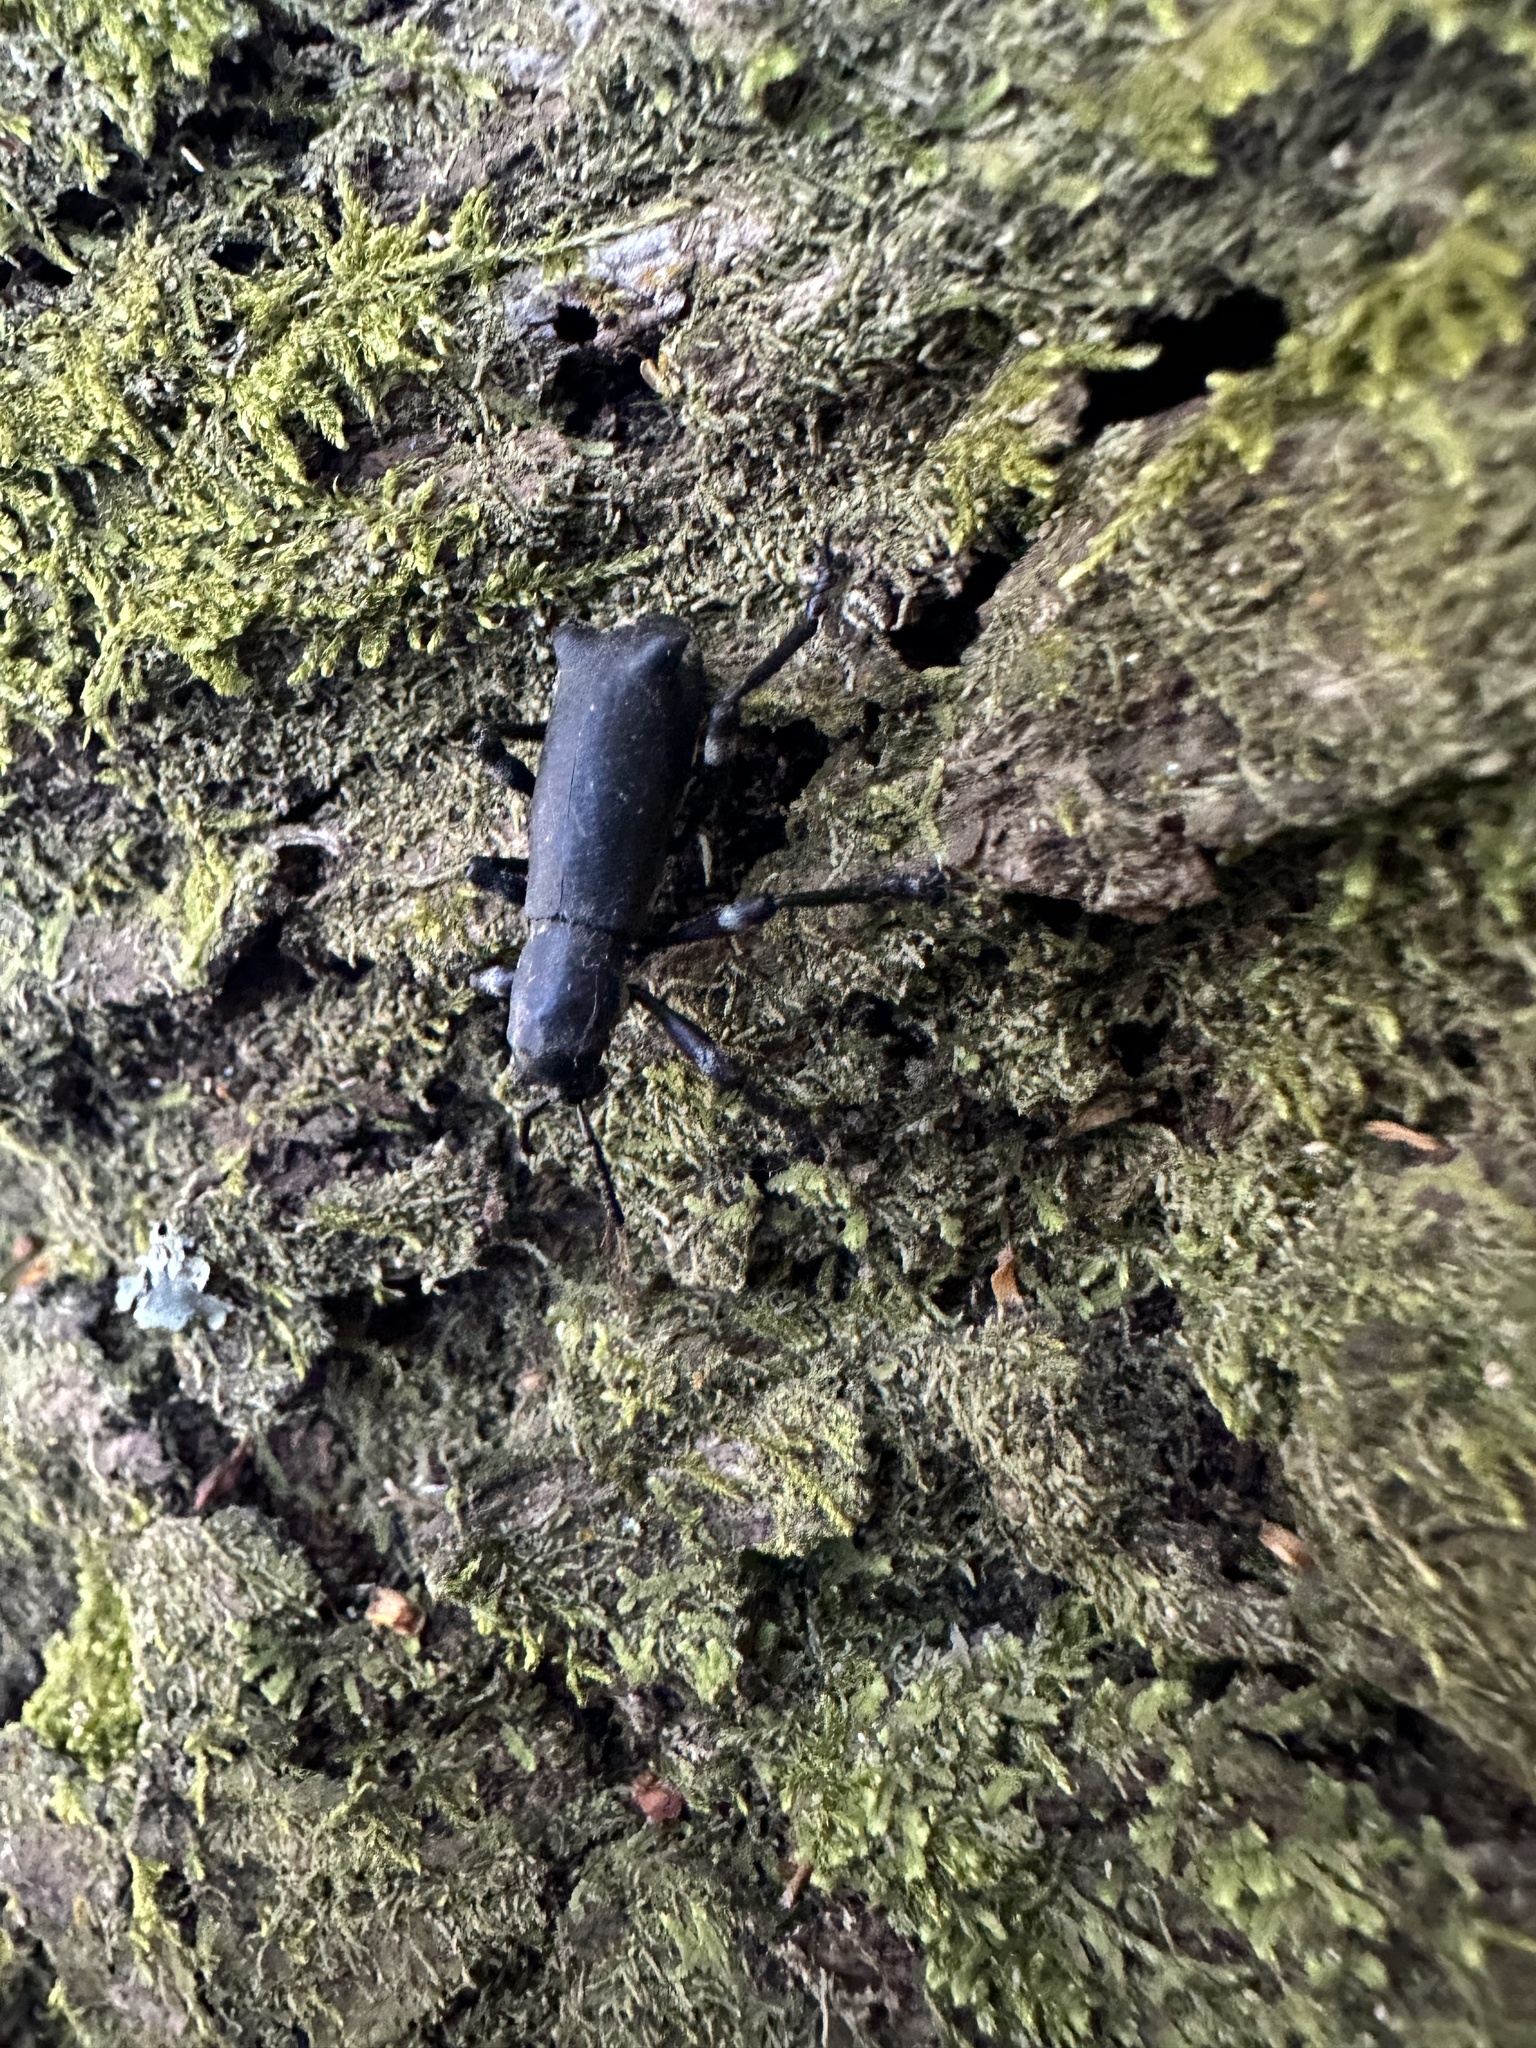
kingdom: Animalia
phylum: Arthropoda
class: Insecta
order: Coleoptera
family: Curculionidae
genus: Aegorhinus
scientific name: Aegorhinus
